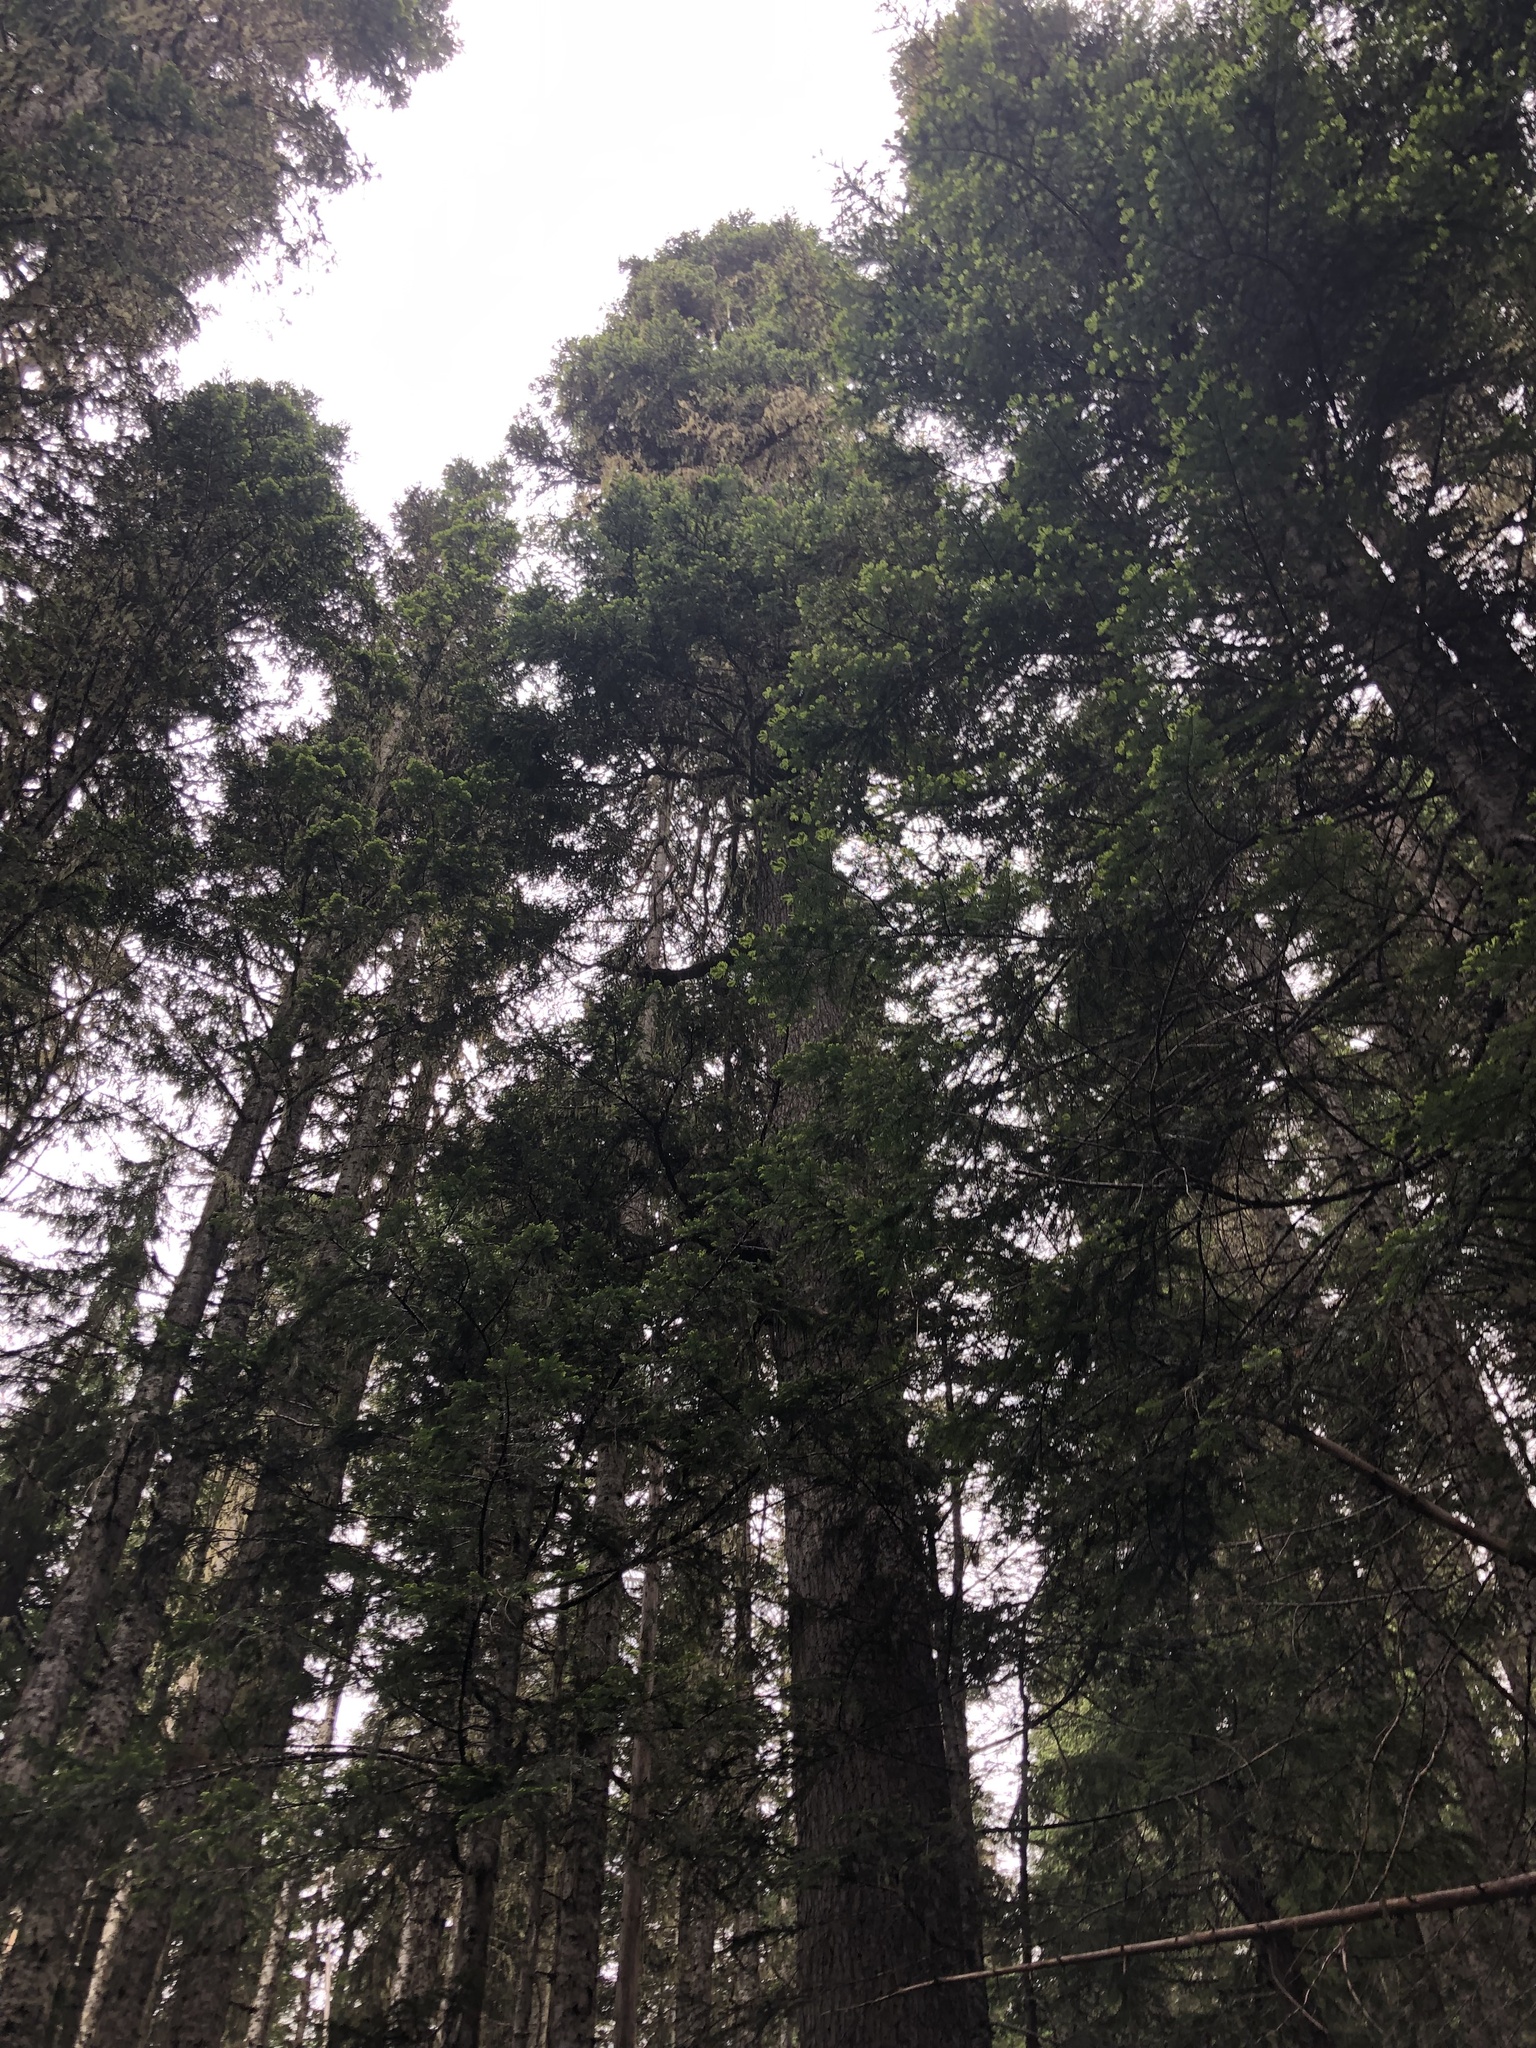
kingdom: Plantae
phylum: Tracheophyta
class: Pinopsida
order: Pinales
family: Pinaceae
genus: Abies
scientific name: Abies amabilis
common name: Pacific silver fir
